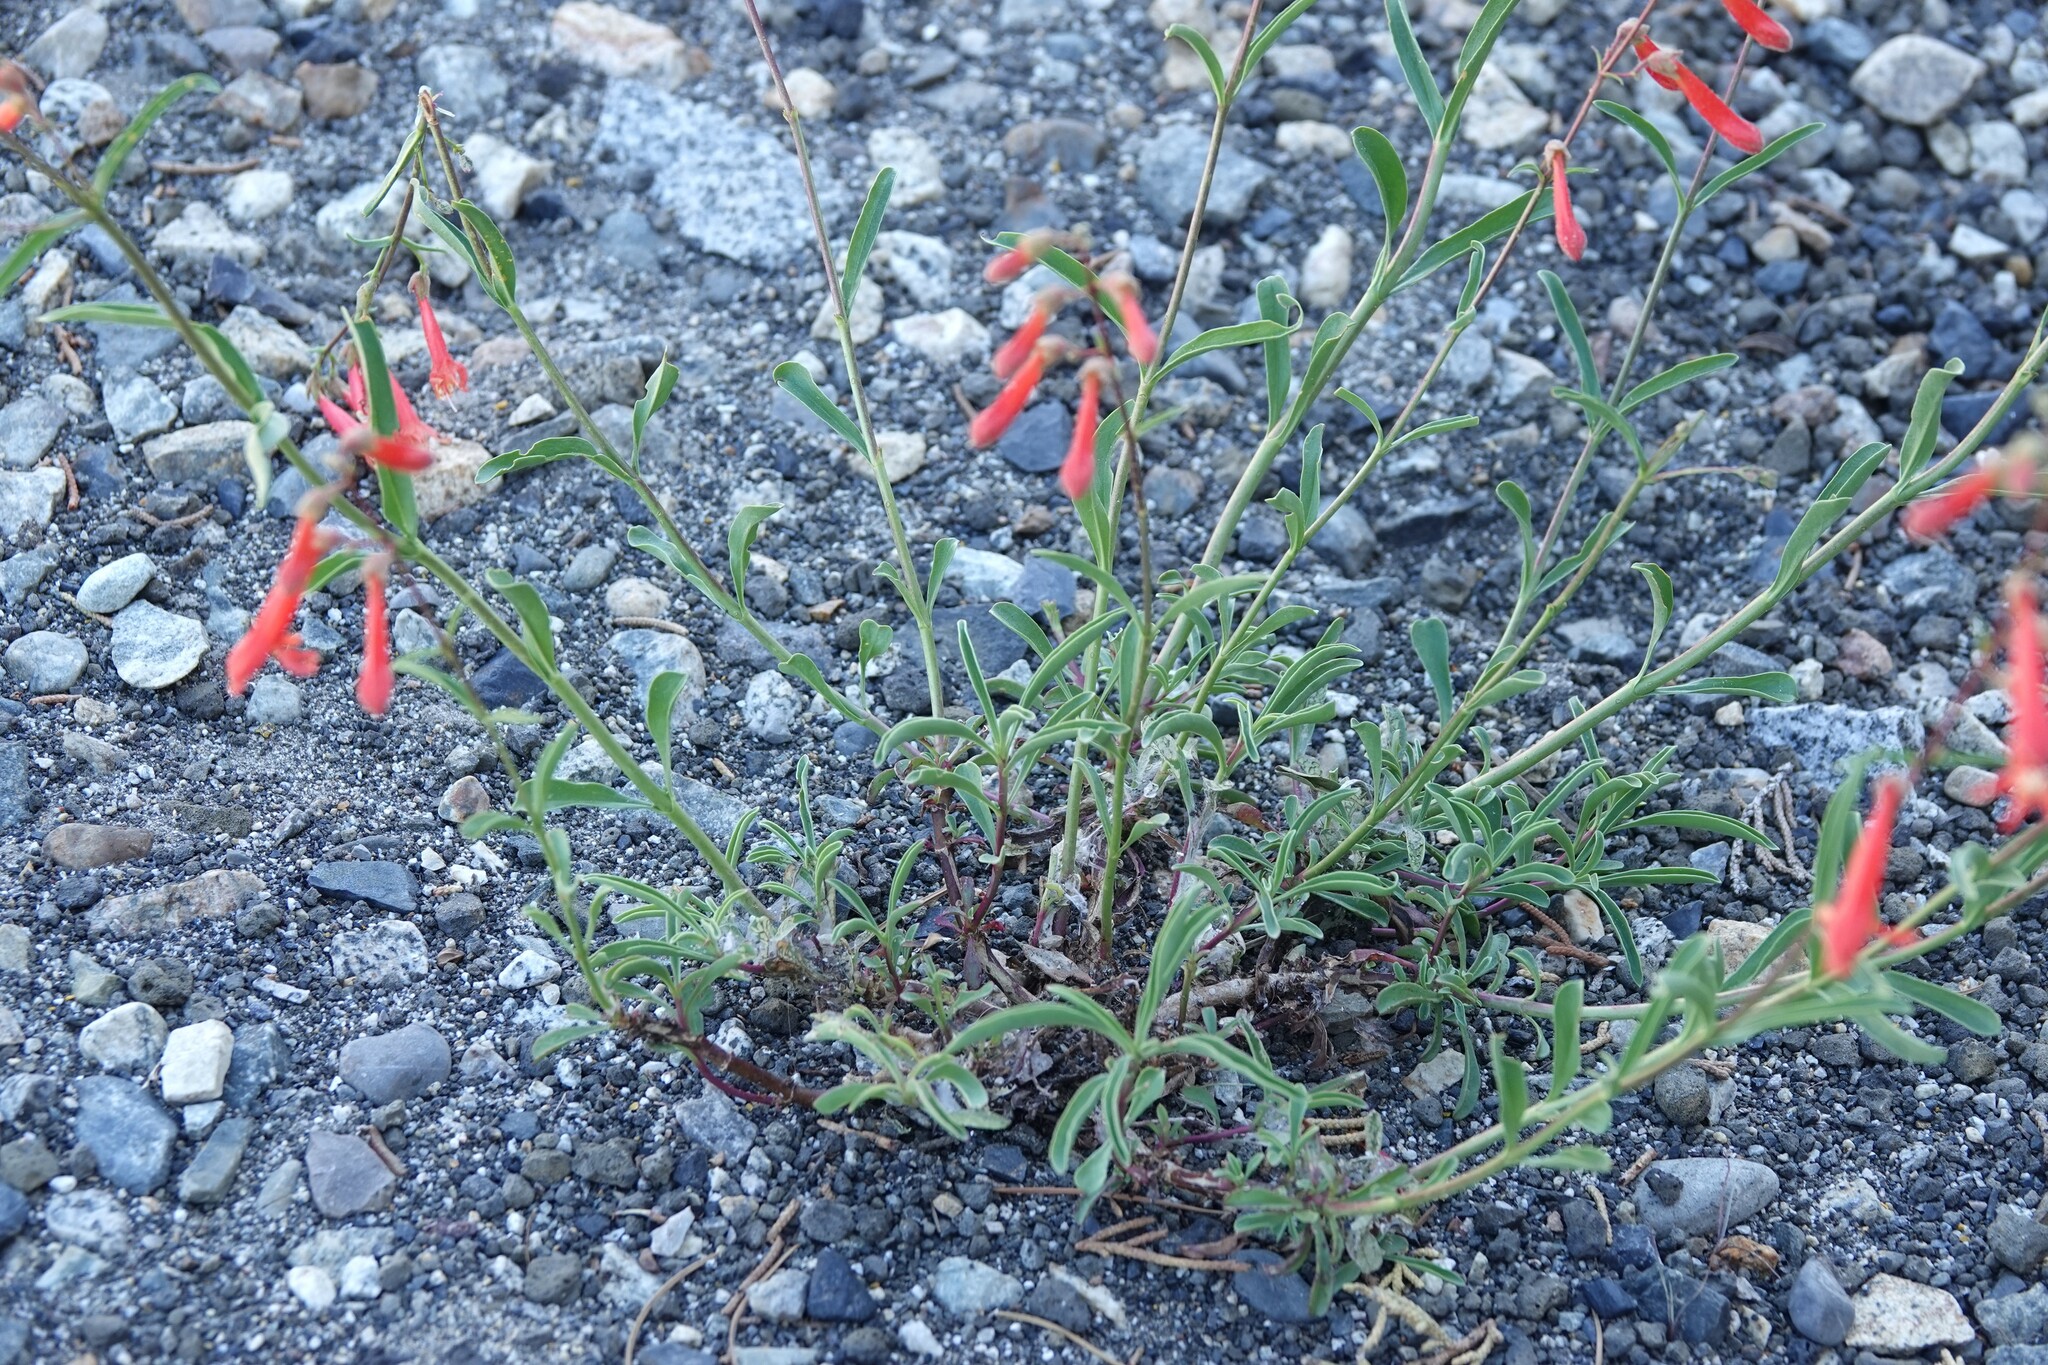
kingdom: Plantae
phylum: Tracheophyta
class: Magnoliopsida
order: Lamiales
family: Plantaginaceae
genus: Penstemon
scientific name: Penstemon rostriflorus
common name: Bridges's penstemon
